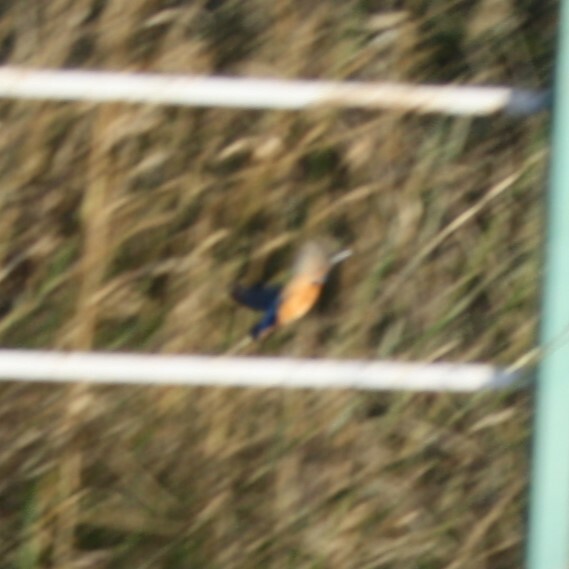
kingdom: Animalia
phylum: Chordata
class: Aves
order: Coraciiformes
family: Alcedinidae
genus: Alcedo
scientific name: Alcedo atthis
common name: Common kingfisher
